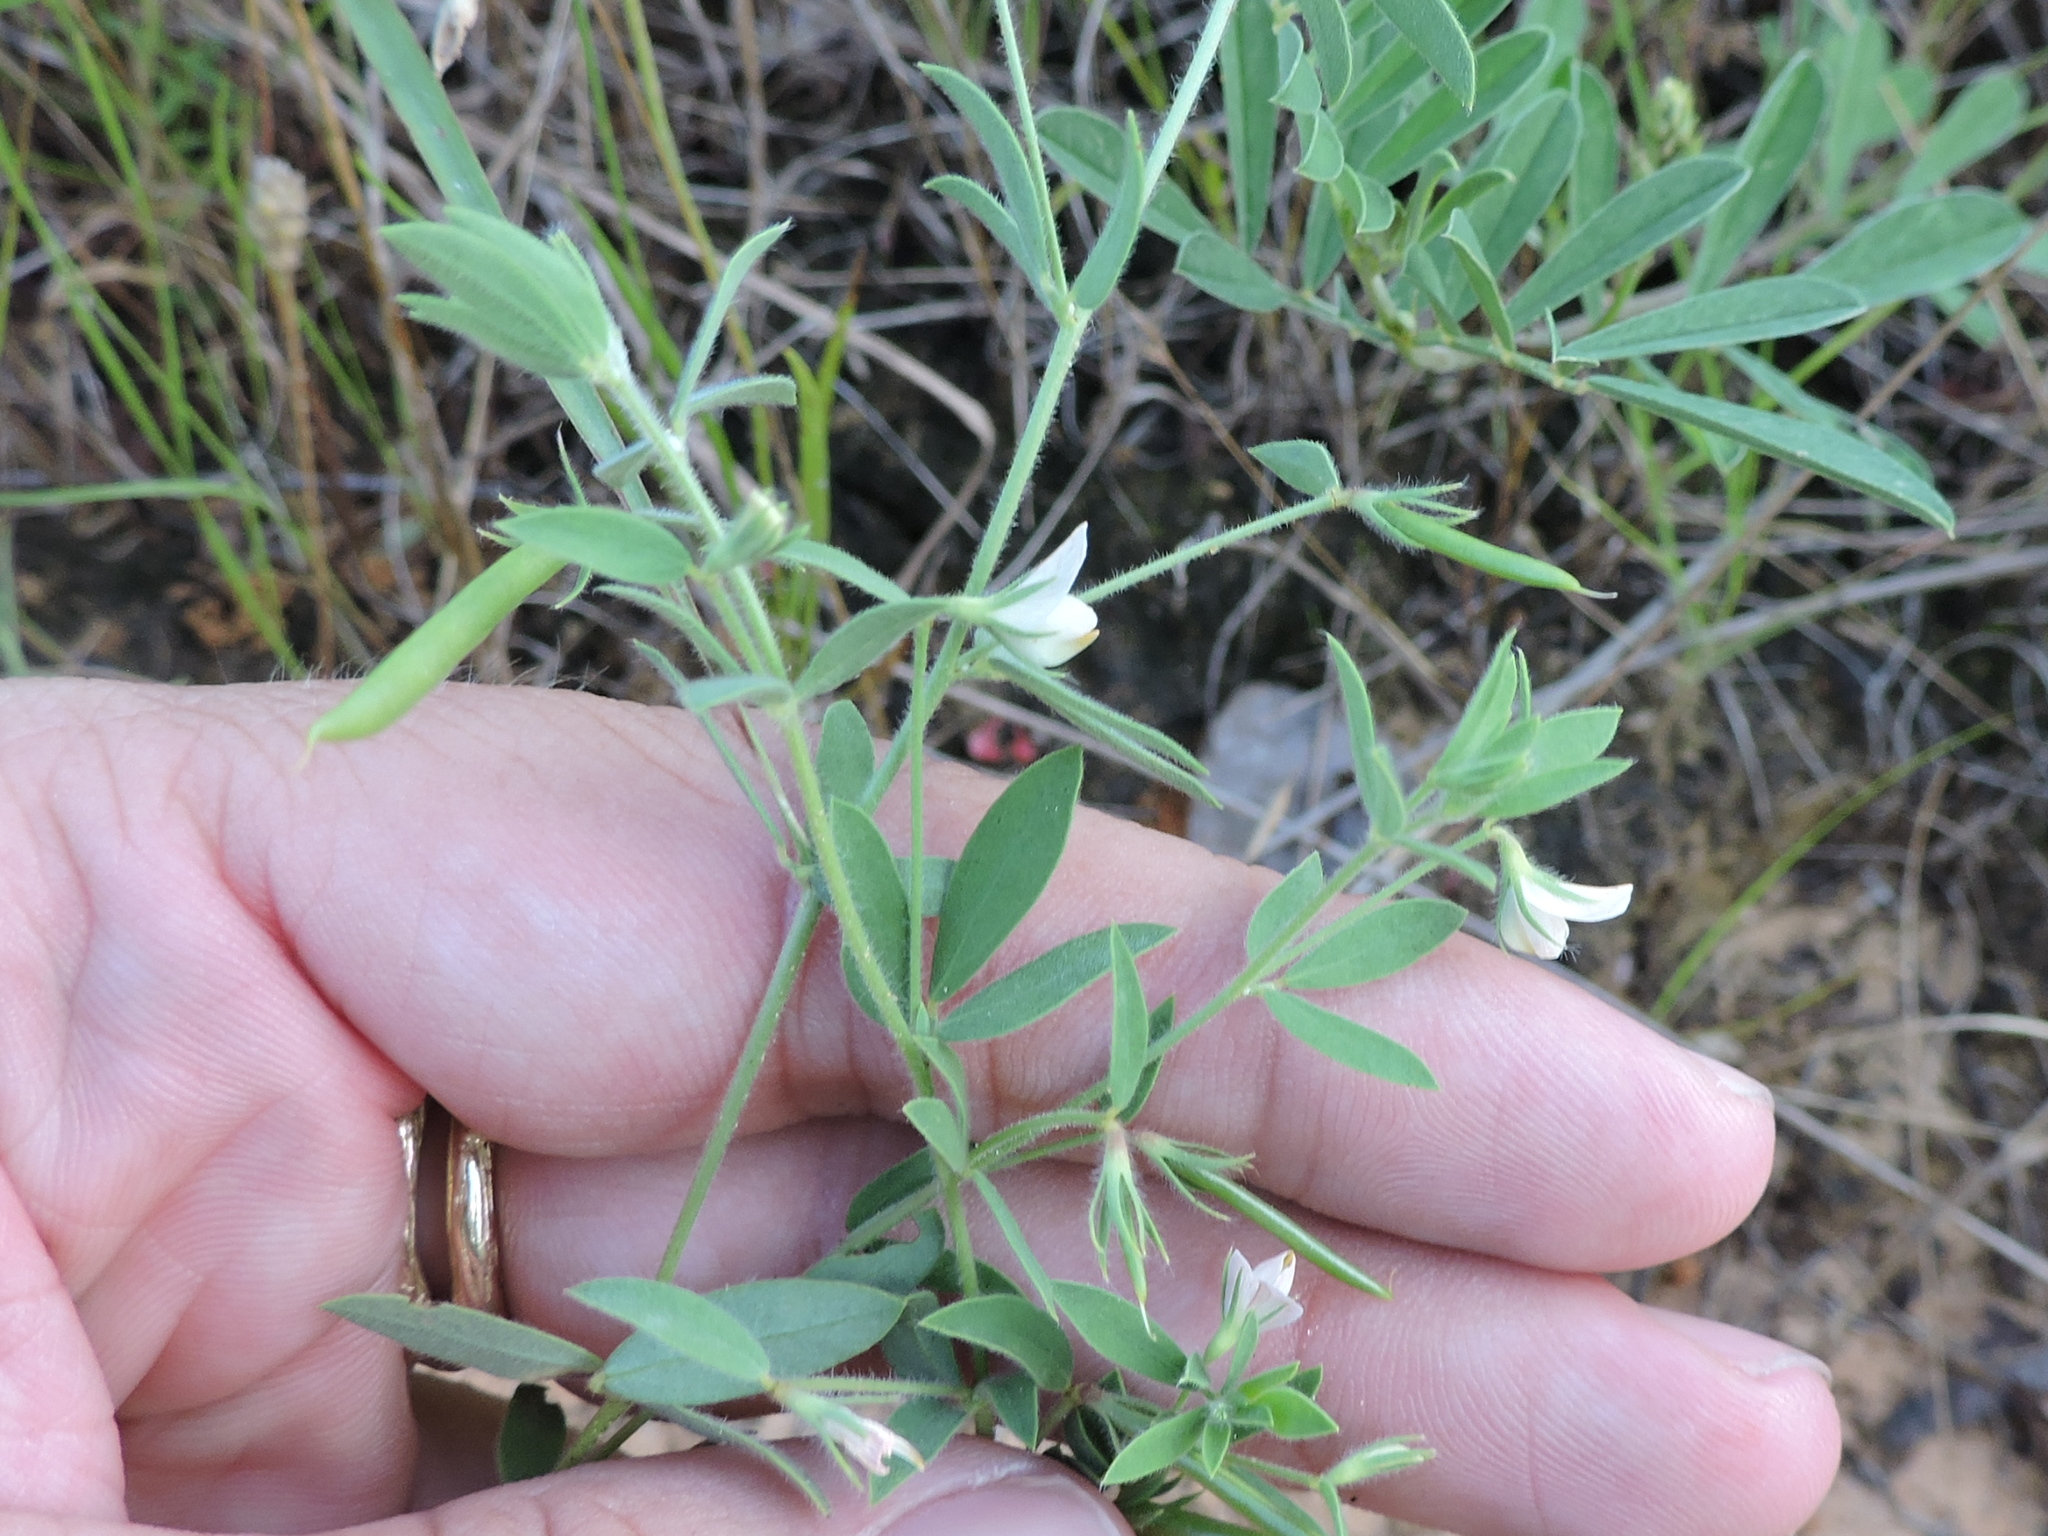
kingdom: Plantae
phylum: Tracheophyta
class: Magnoliopsida
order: Fabales
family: Fabaceae
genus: Acmispon
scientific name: Acmispon americanus
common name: American bird's-foot trefoil
